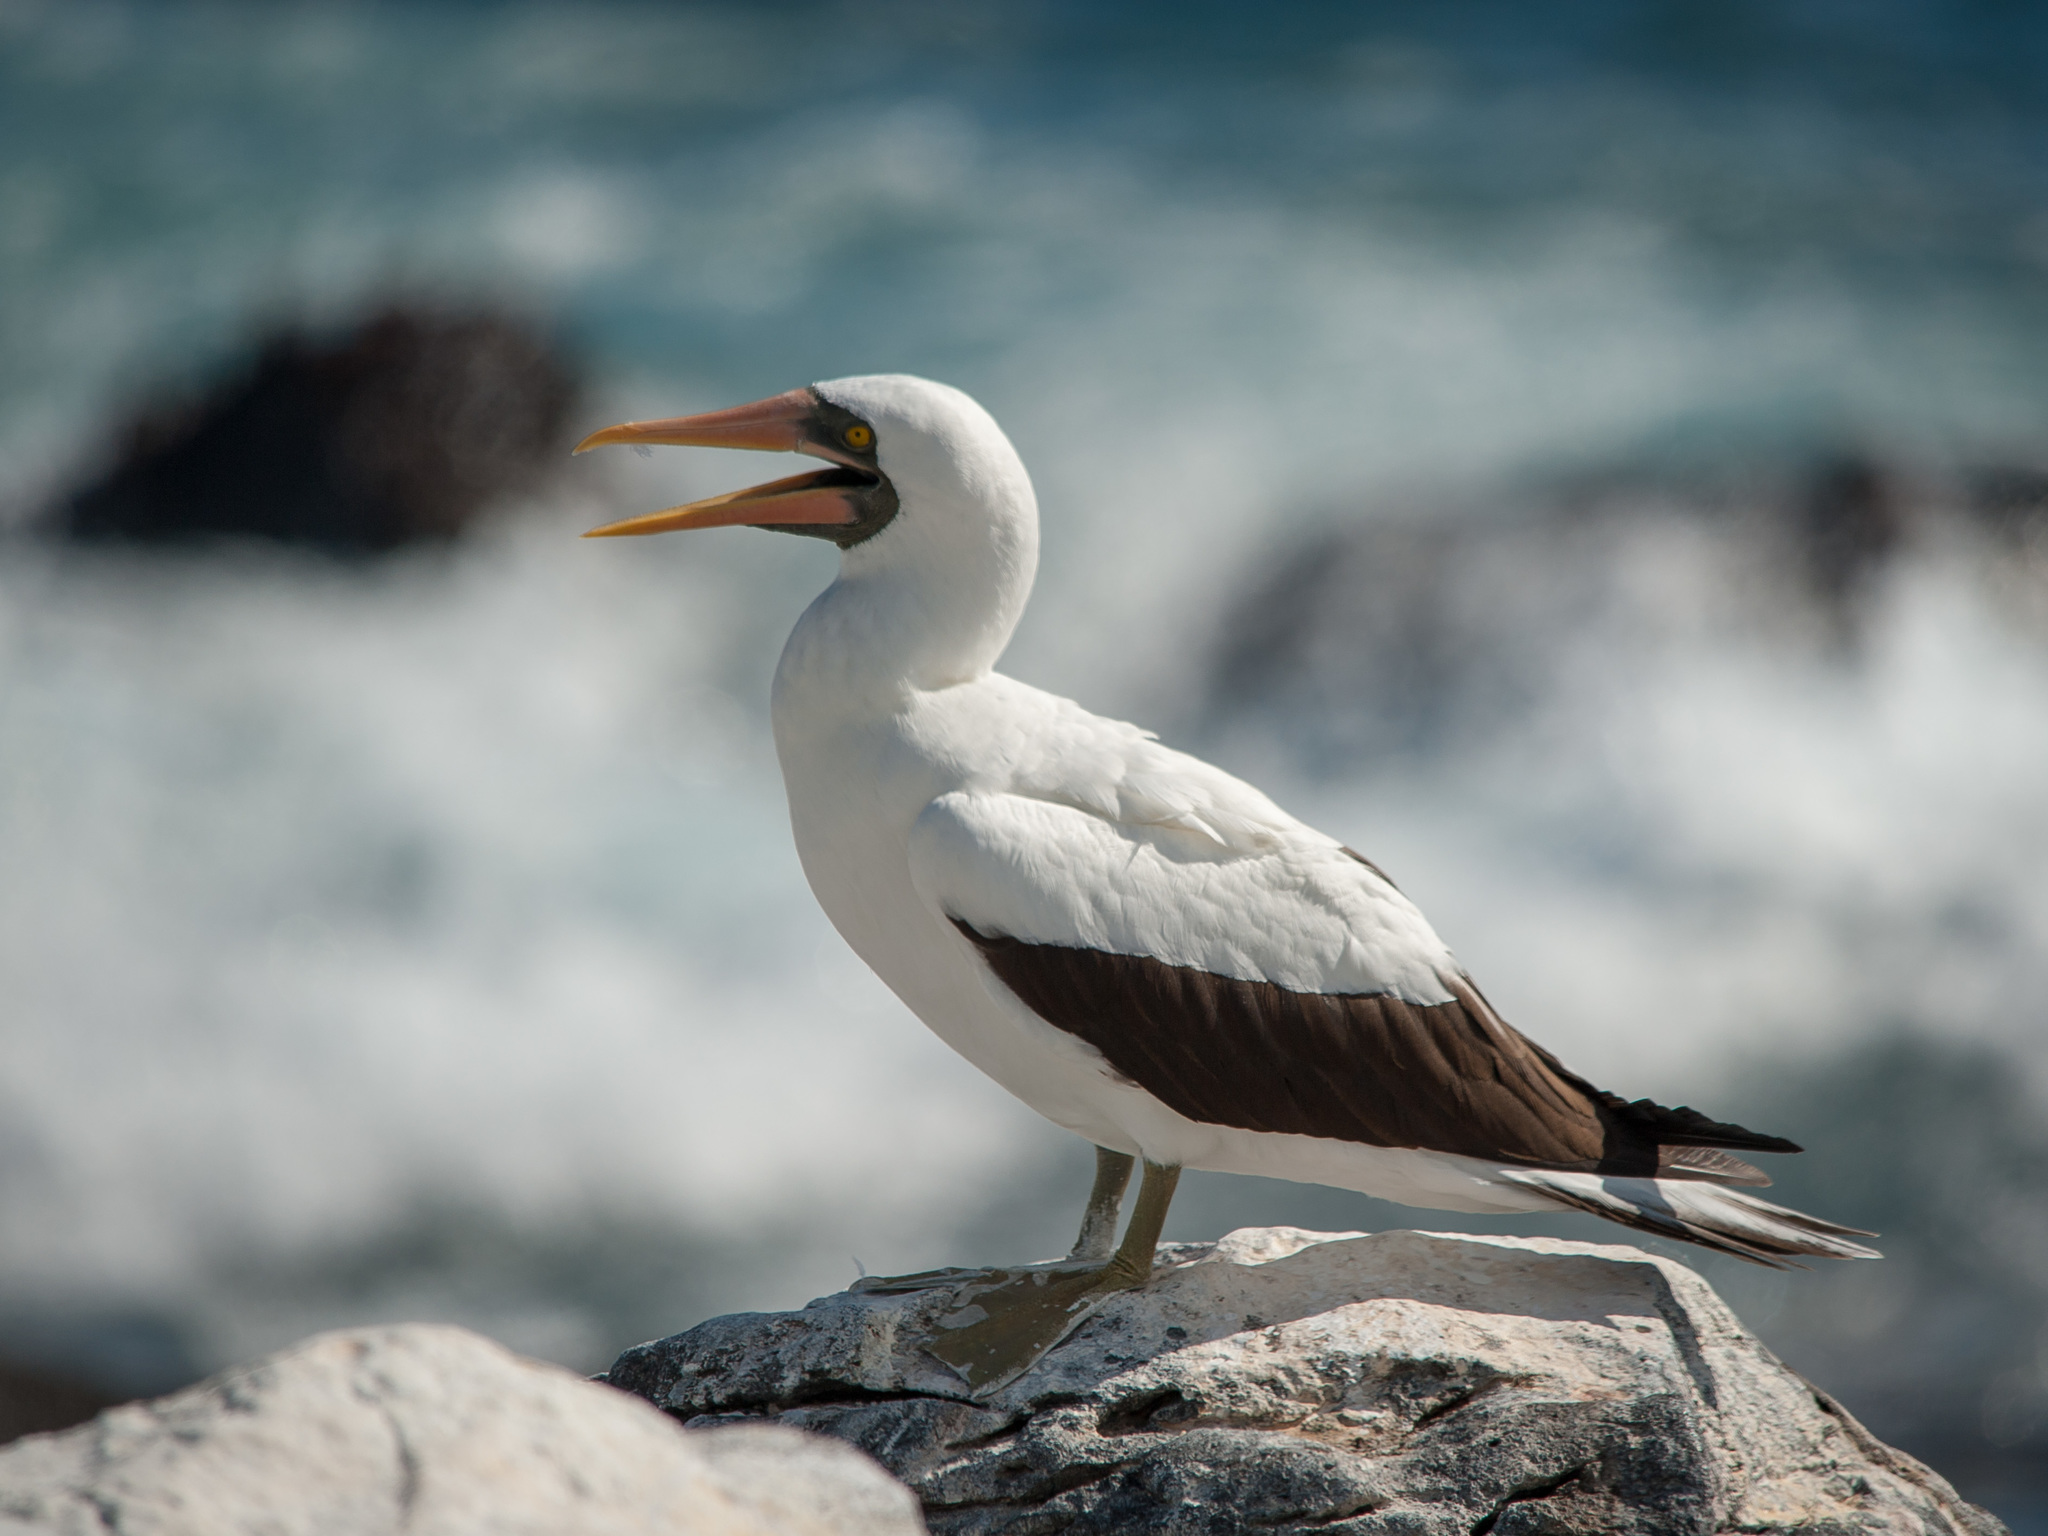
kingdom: Animalia
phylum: Chordata
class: Aves
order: Suliformes
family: Sulidae
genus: Sula
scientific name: Sula granti
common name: Nazca booby
